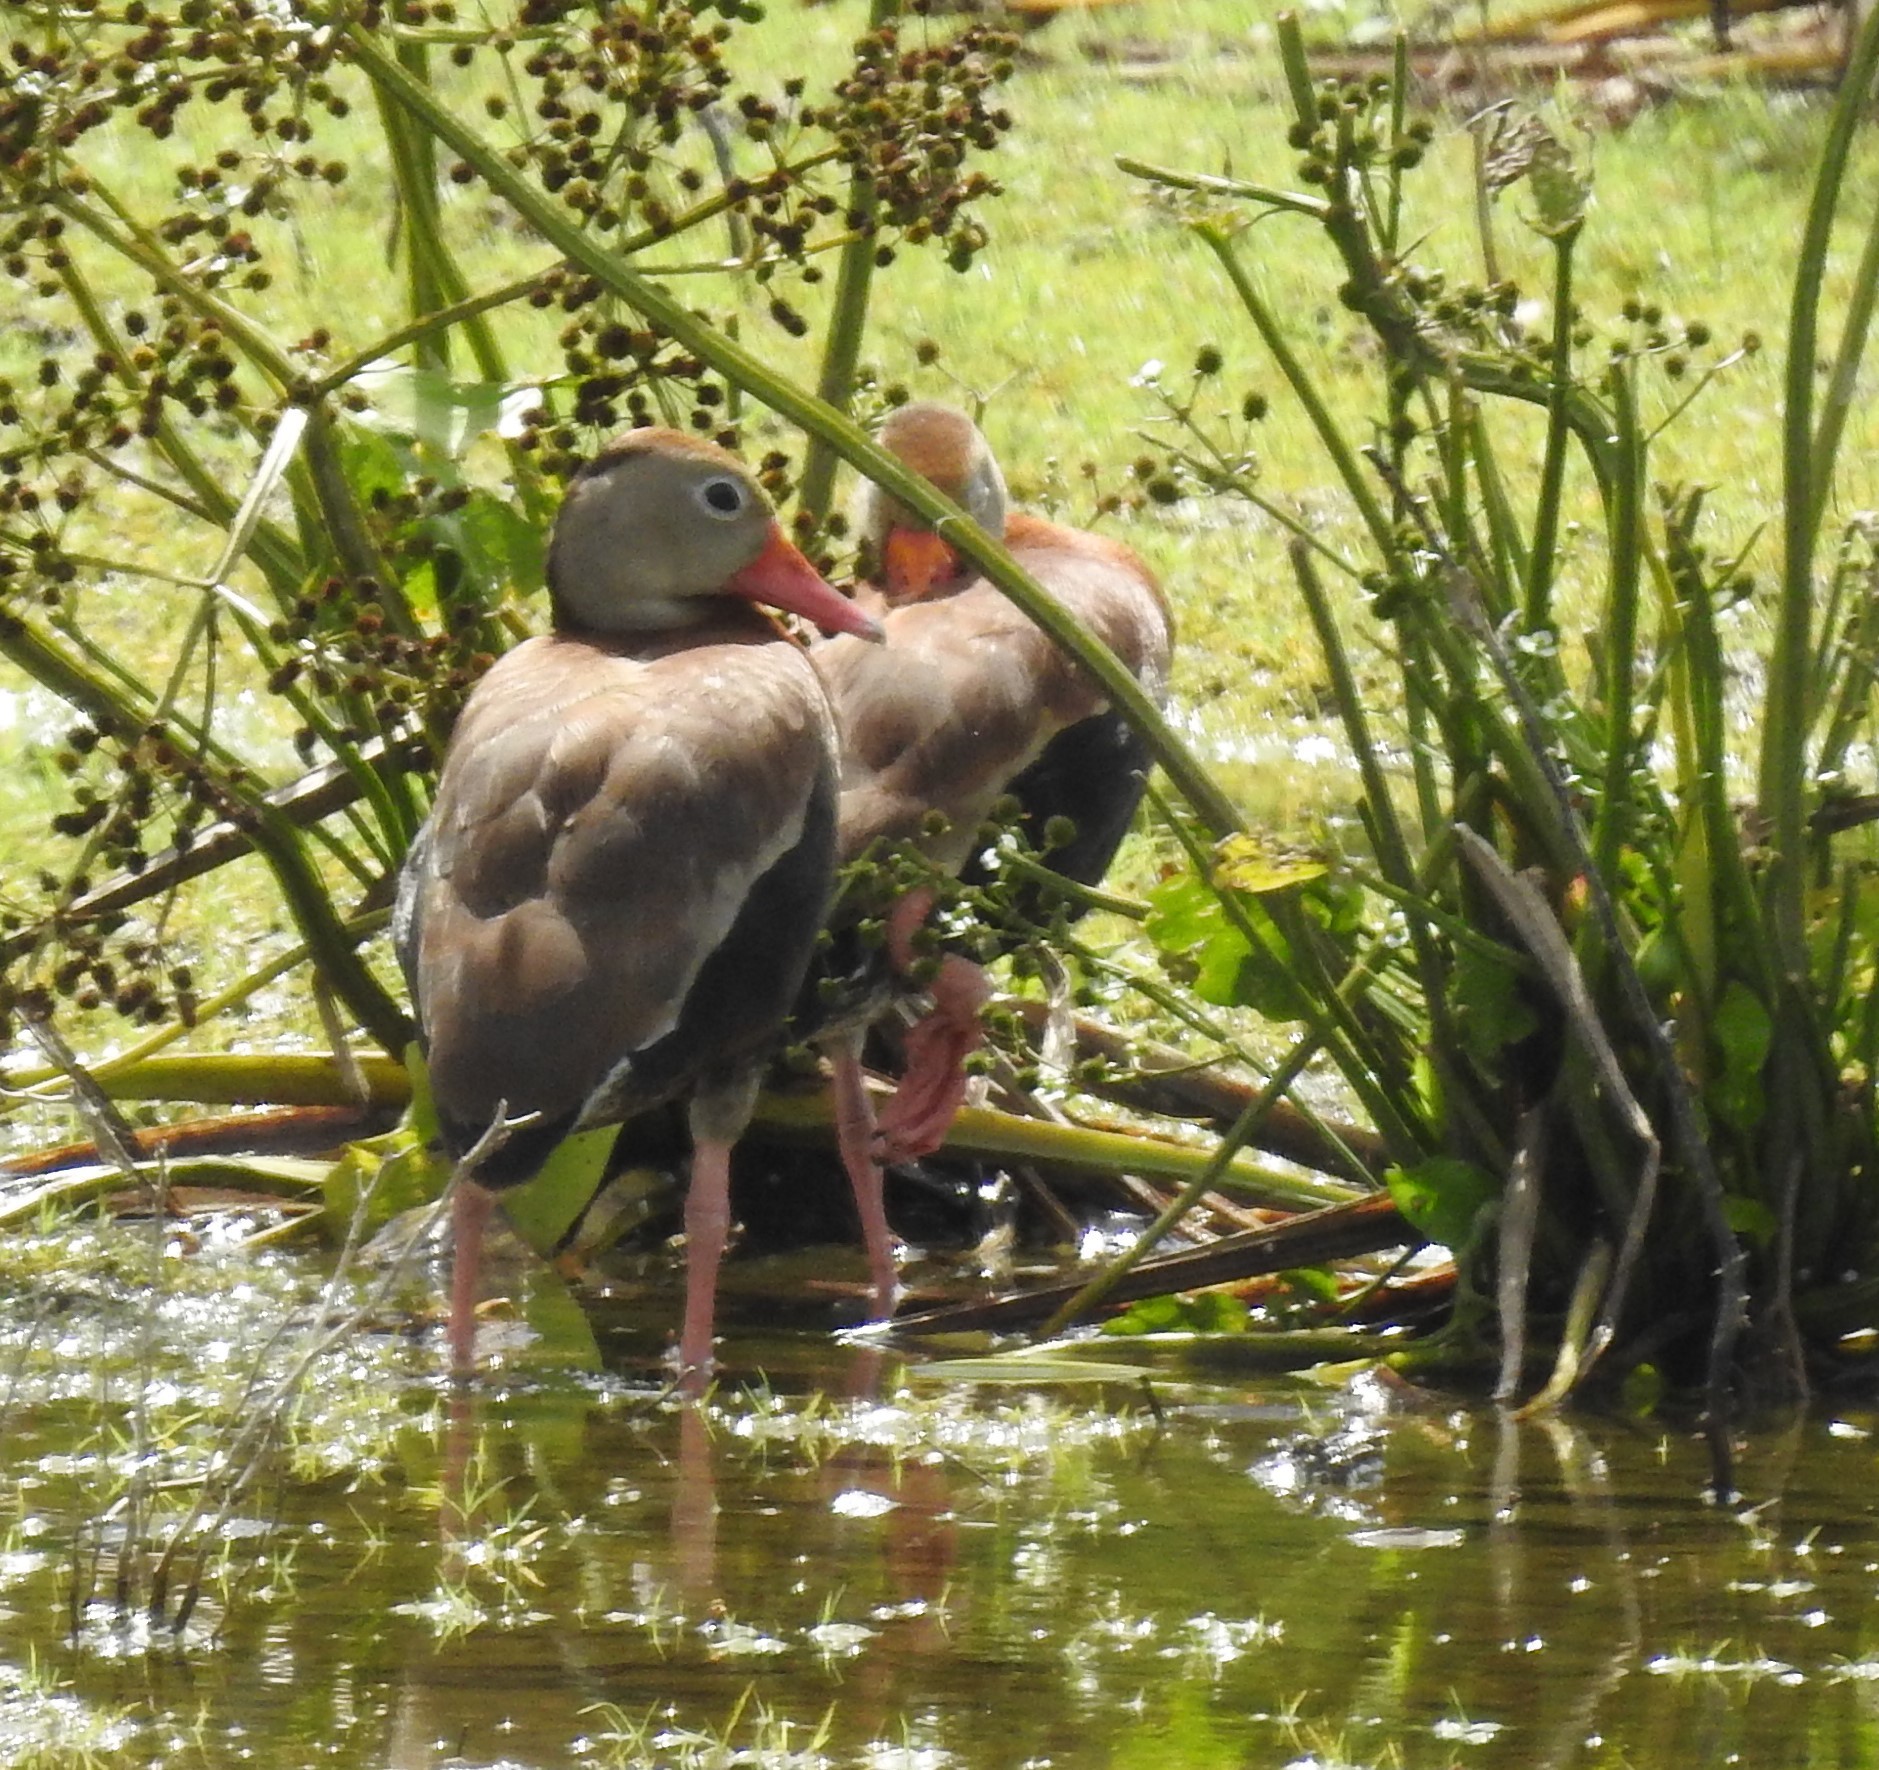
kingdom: Animalia
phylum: Chordata
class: Aves
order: Anseriformes
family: Anatidae
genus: Dendrocygna
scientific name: Dendrocygna autumnalis
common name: Black-bellied whistling duck
